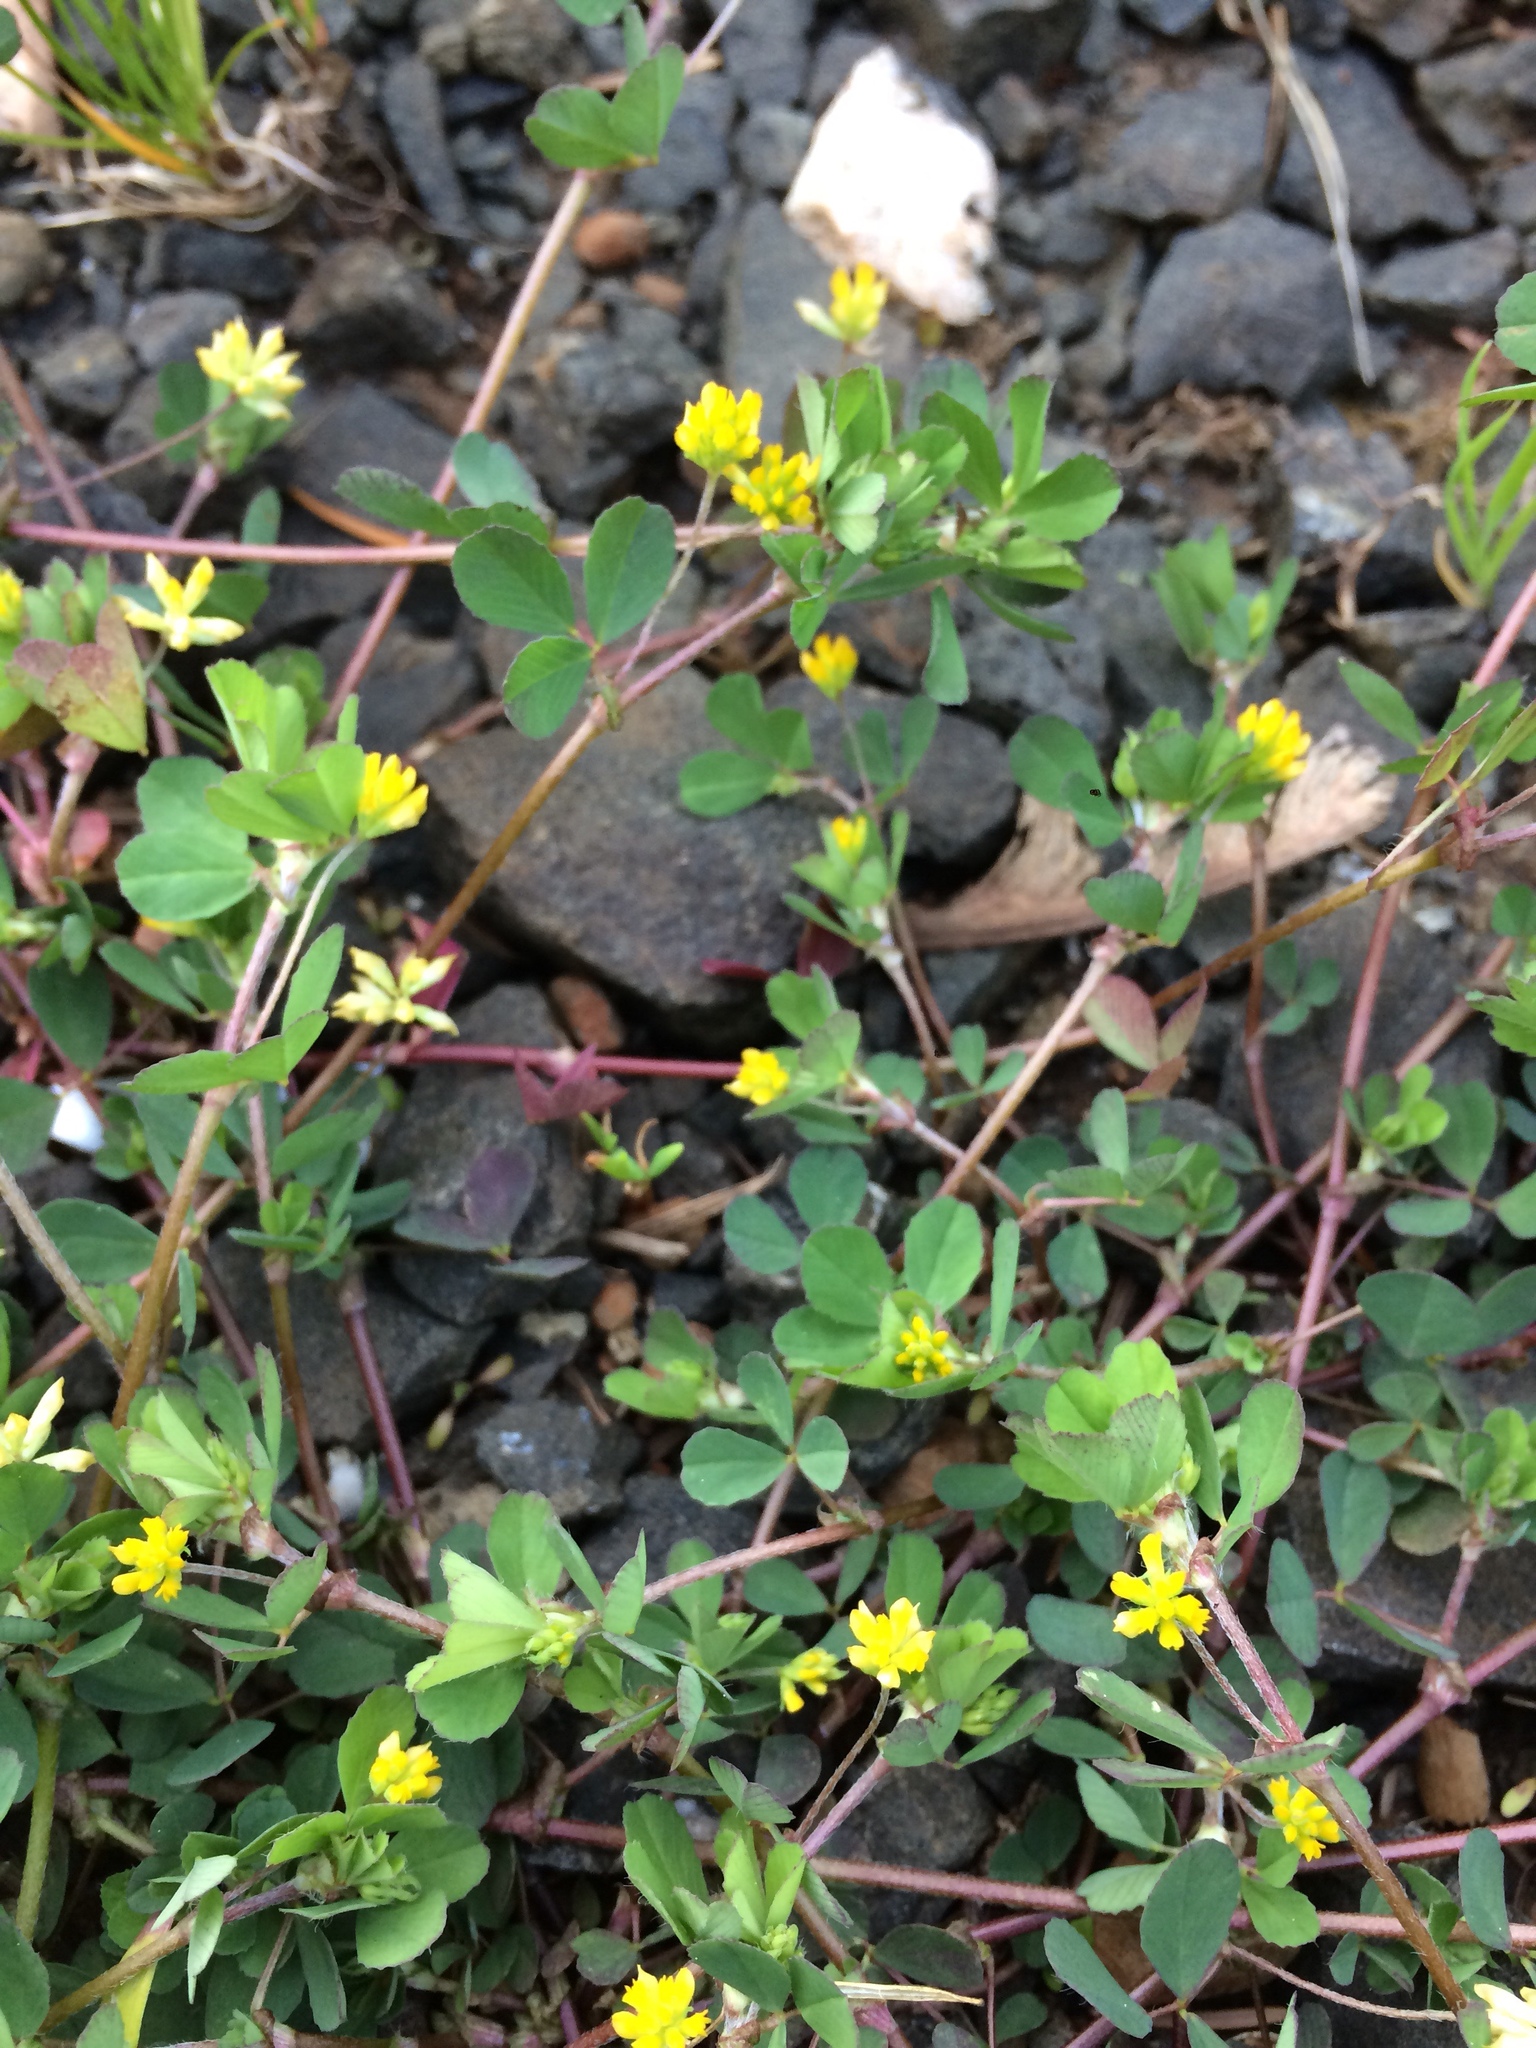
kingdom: Plantae
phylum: Tracheophyta
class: Magnoliopsida
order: Fabales
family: Fabaceae
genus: Trifolium
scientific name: Trifolium dubium
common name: Suckling clover
